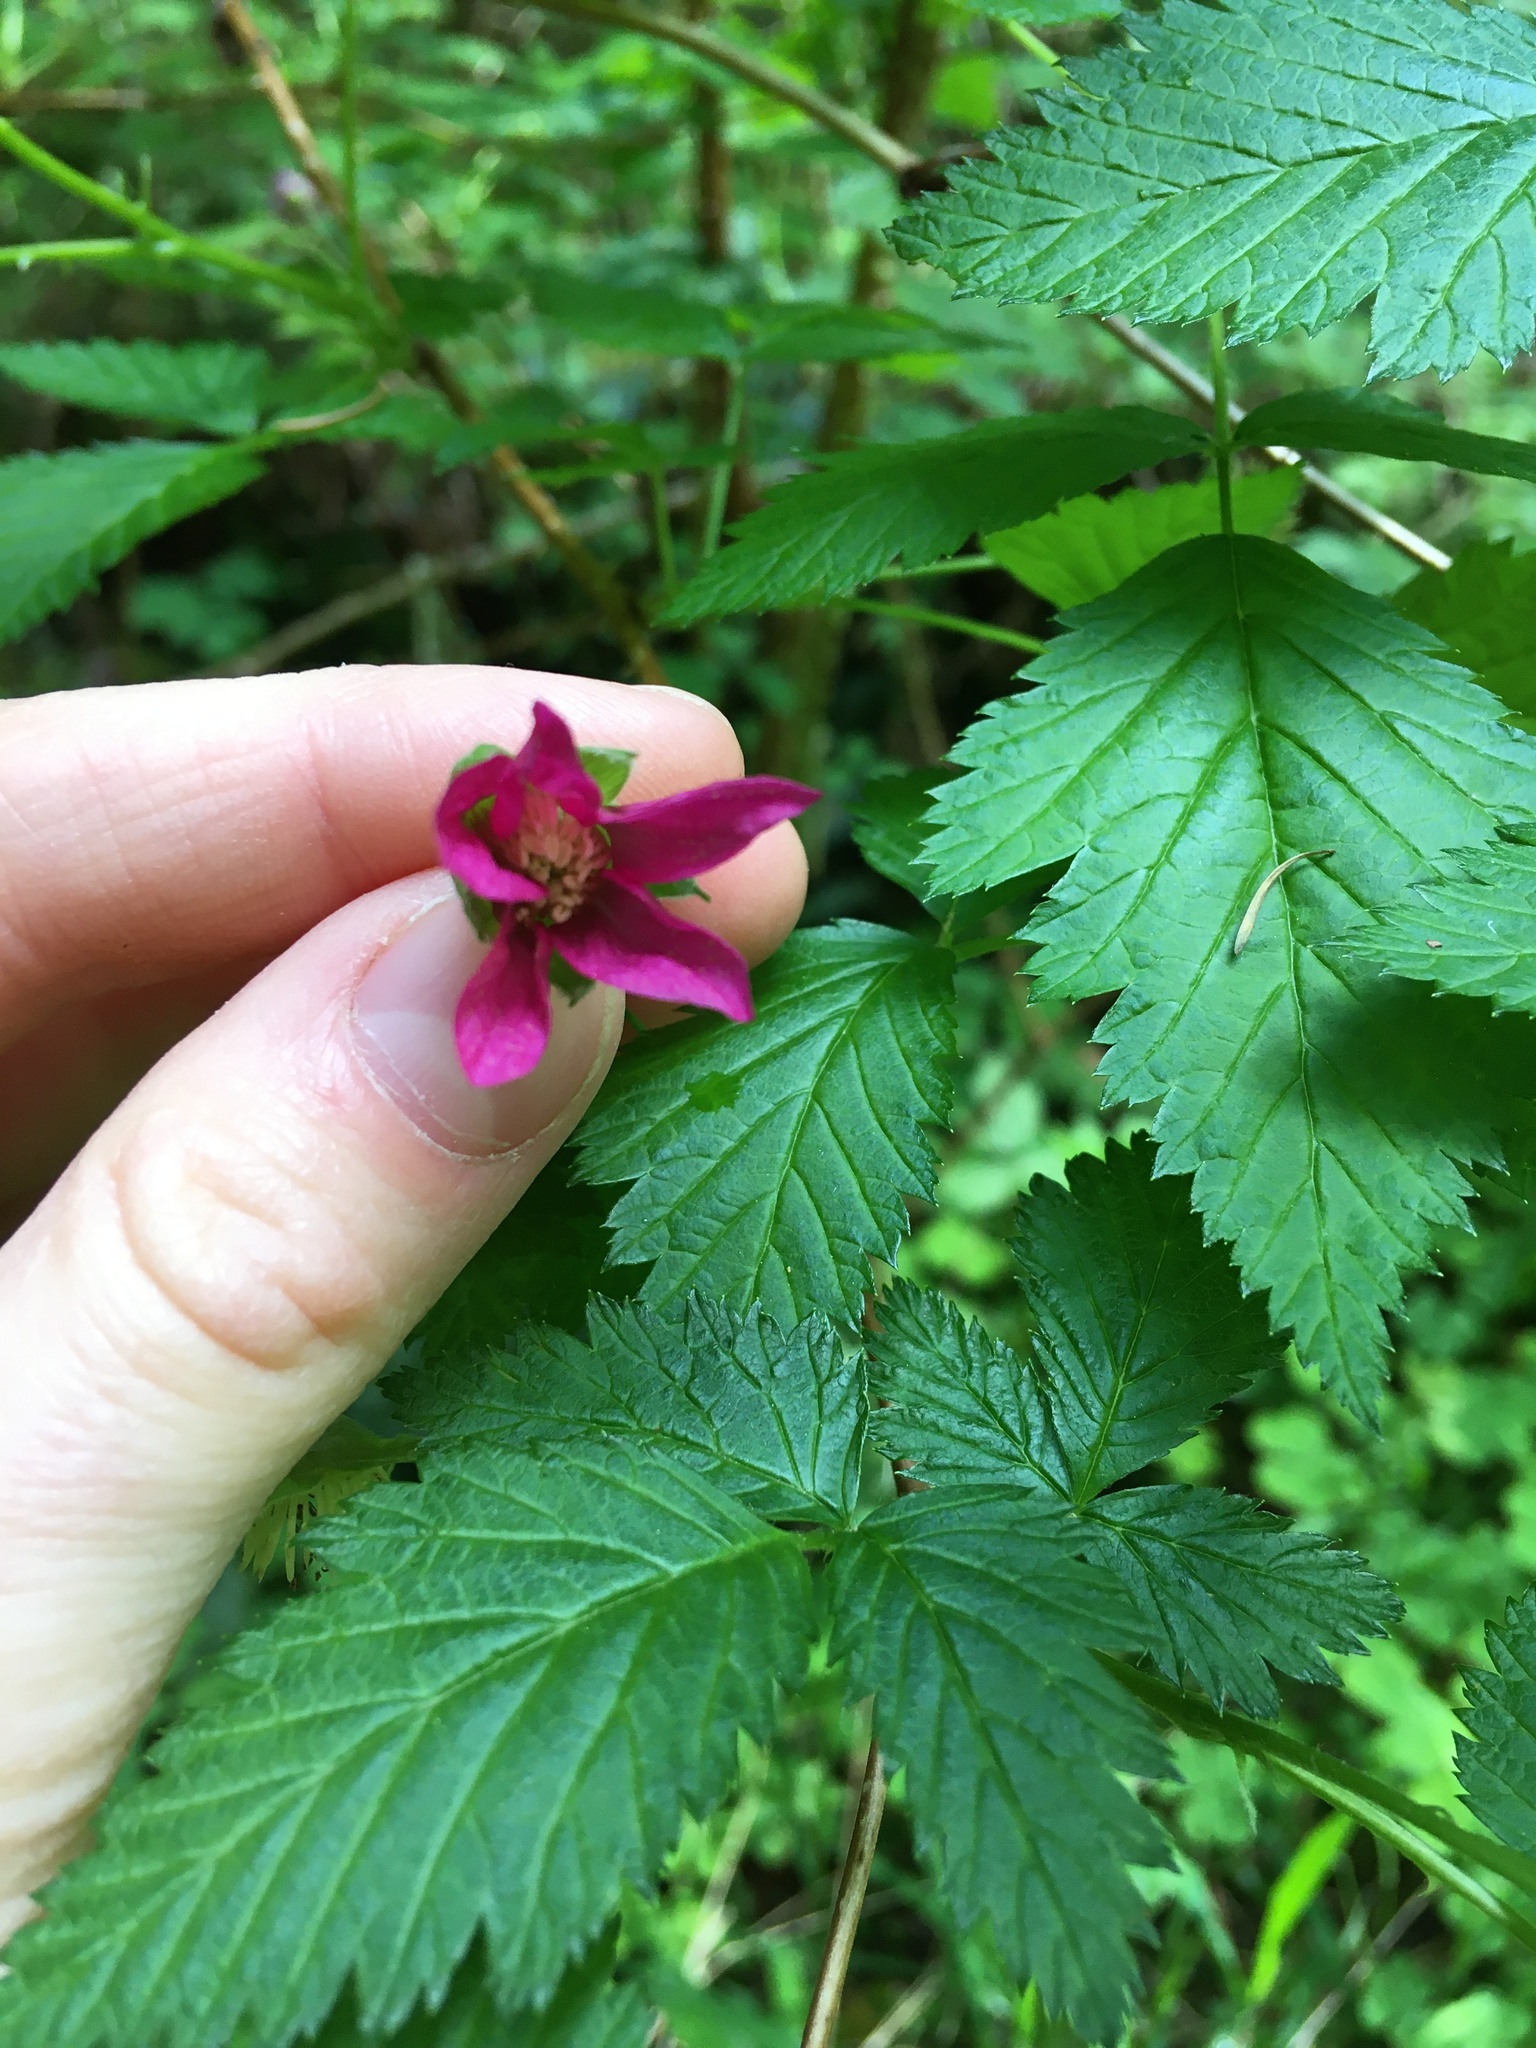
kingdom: Plantae
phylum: Tracheophyta
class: Magnoliopsida
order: Rosales
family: Rosaceae
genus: Rubus
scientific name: Rubus spectabilis
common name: Salmonberry
